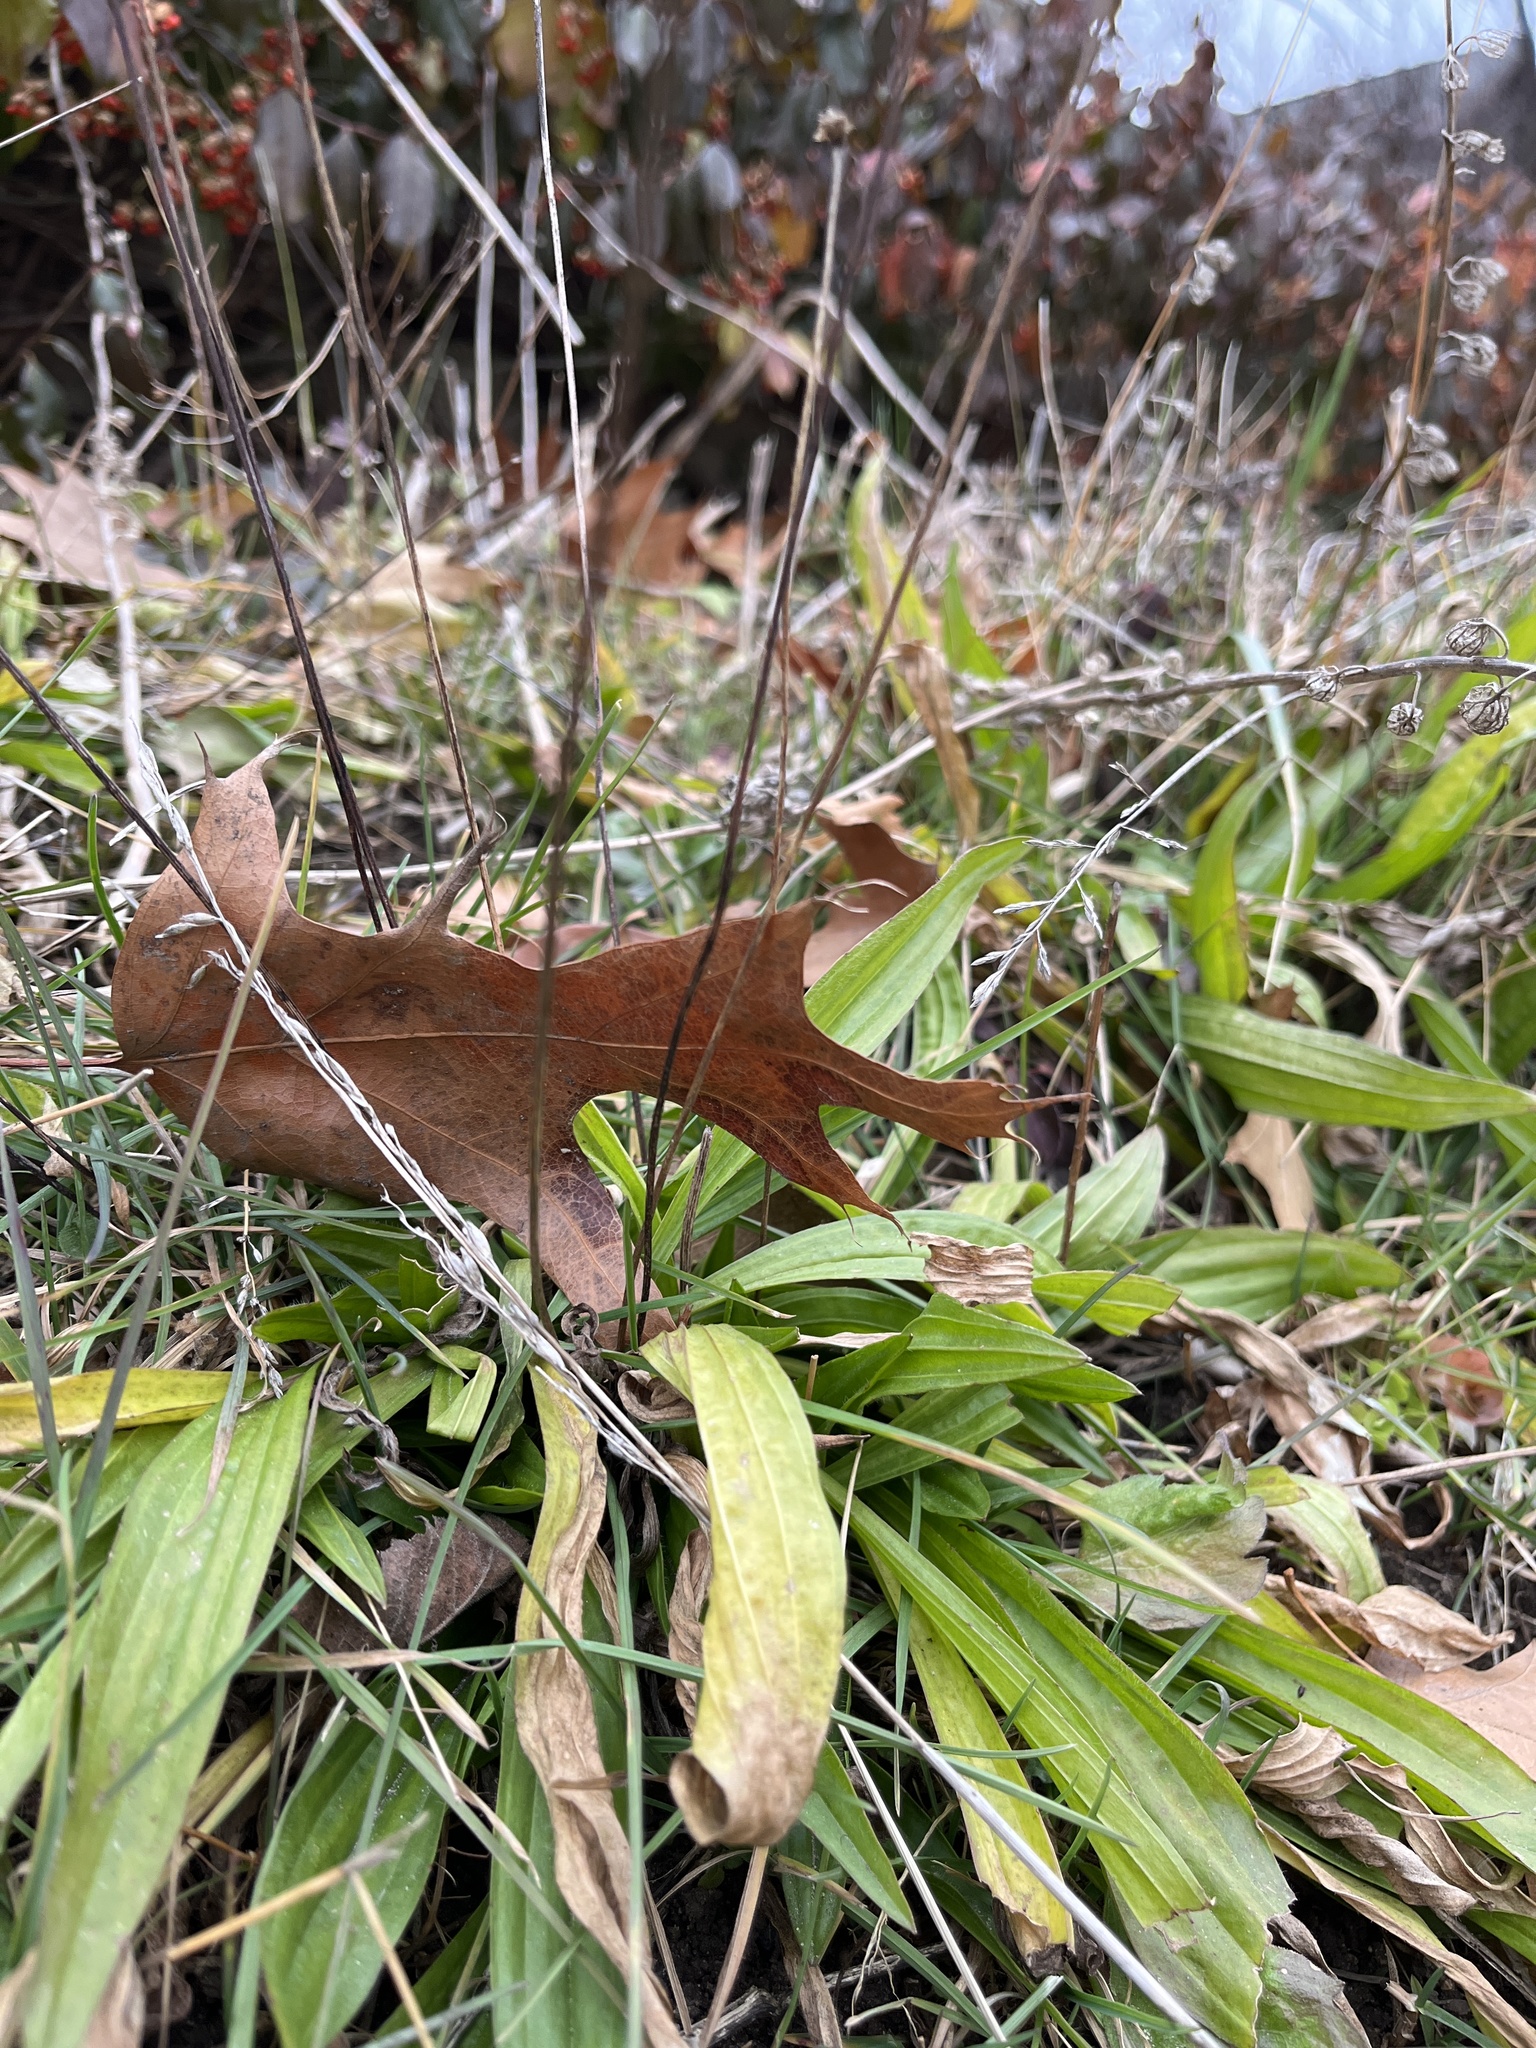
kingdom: Plantae
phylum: Tracheophyta
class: Magnoliopsida
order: Lamiales
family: Plantaginaceae
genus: Plantago
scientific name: Plantago lanceolata
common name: Ribwort plantain
